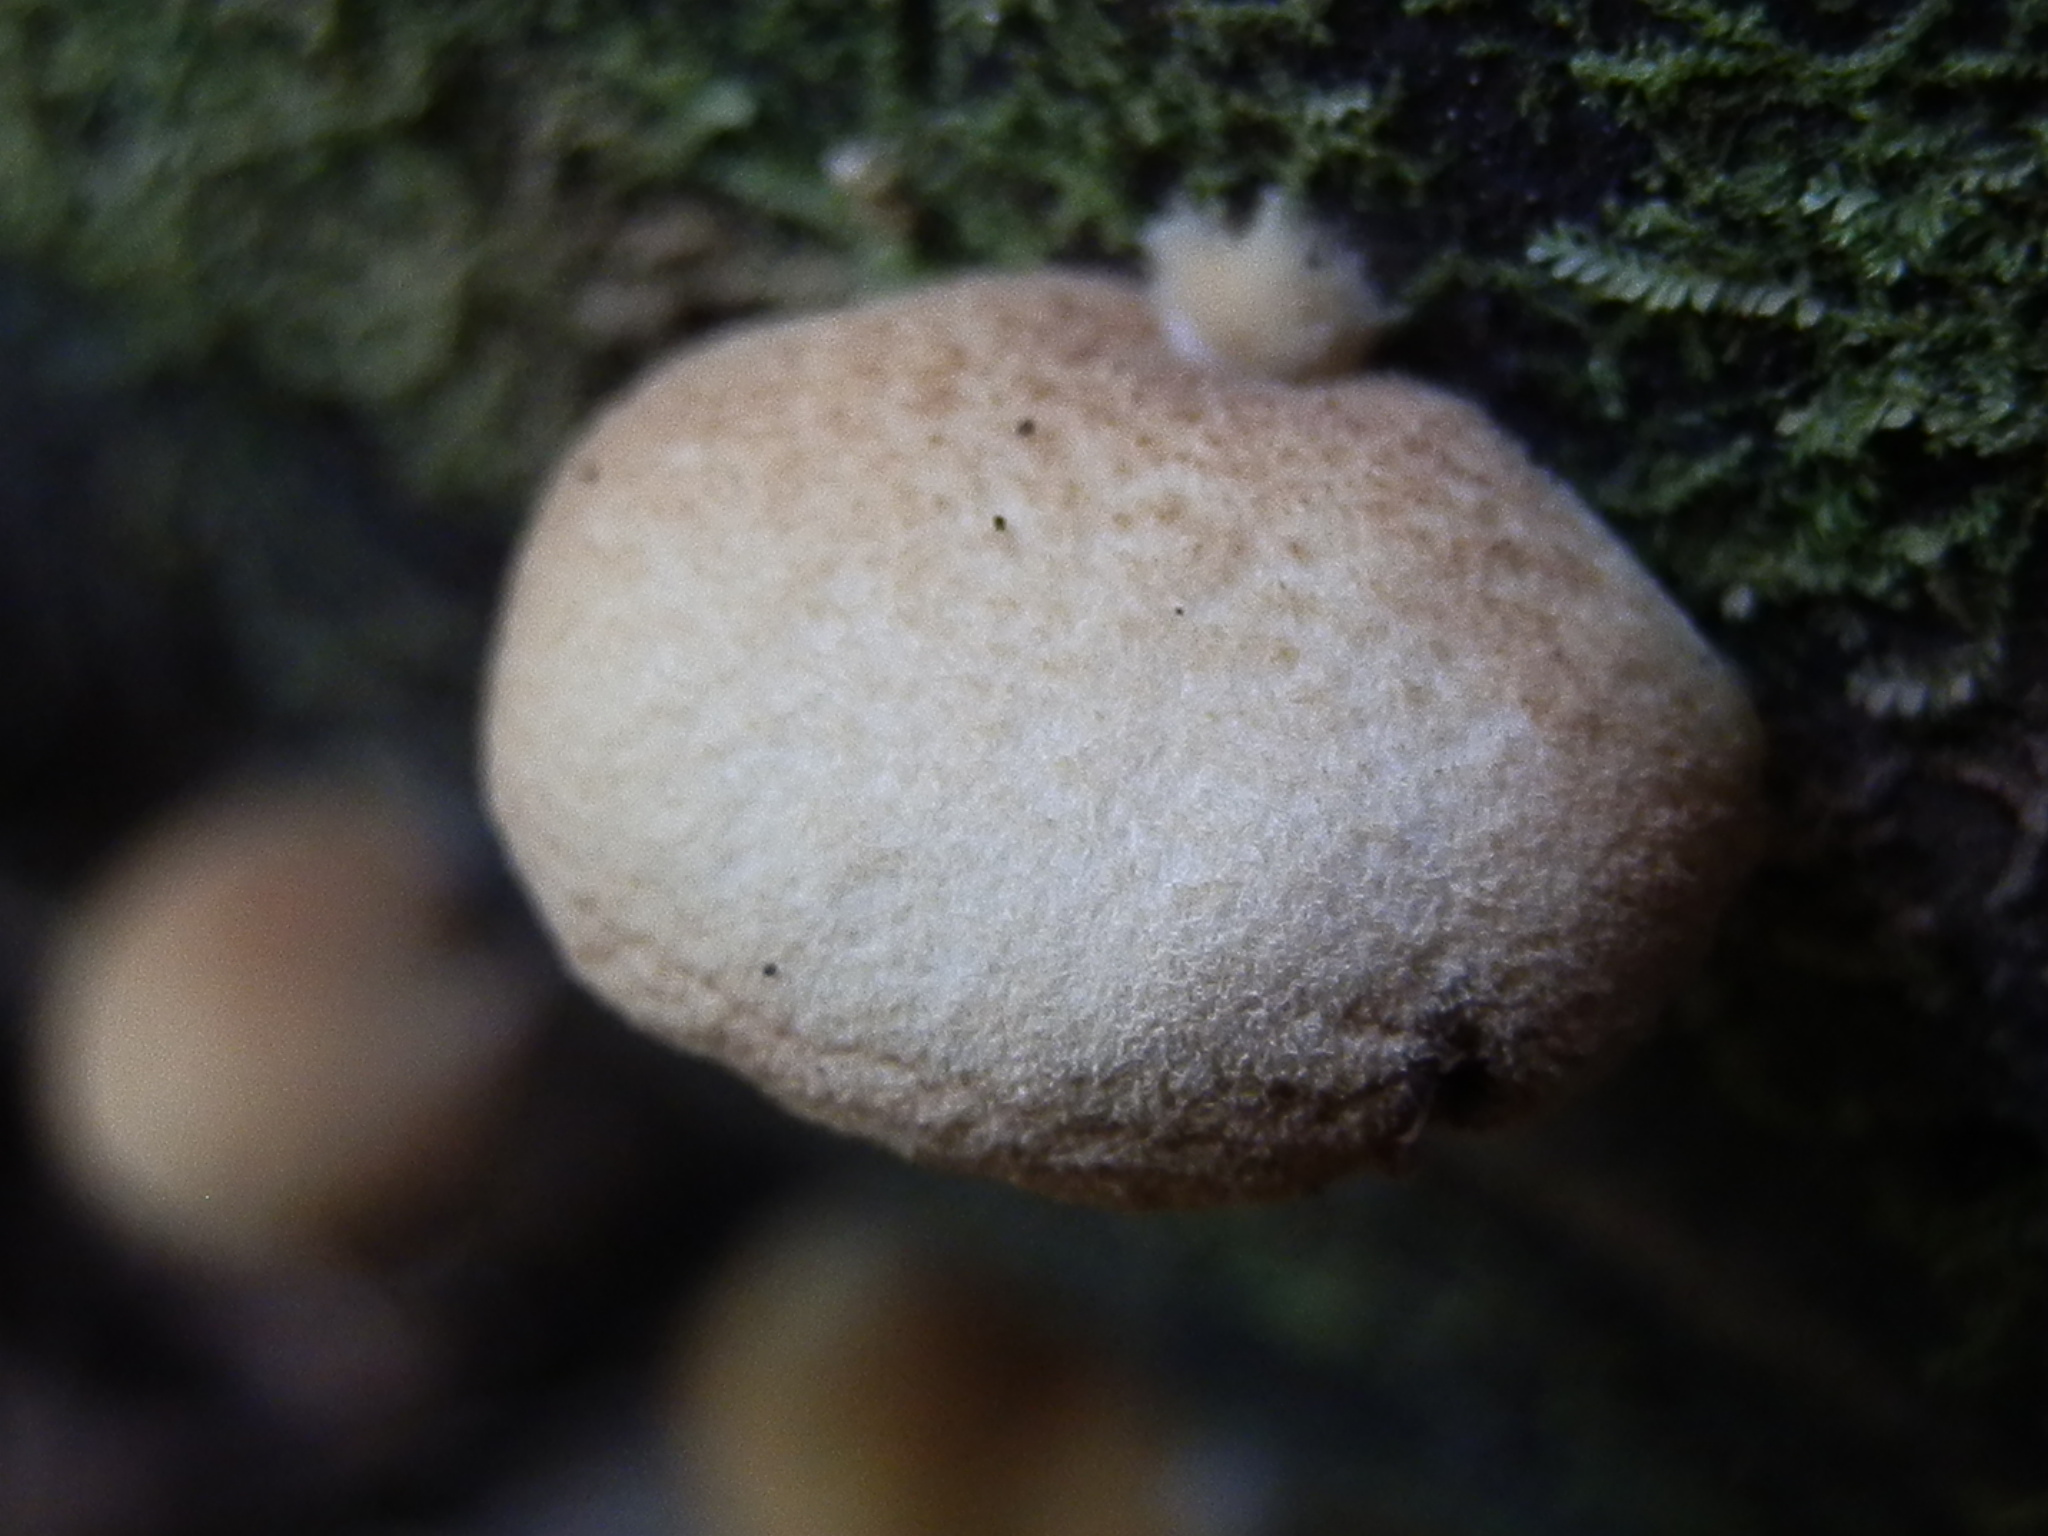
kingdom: Fungi
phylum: Basidiomycota
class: Agaricomycetes
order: Agaricales
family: Crepidotaceae
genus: Crepidotus
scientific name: Crepidotus crocophyllus
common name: Saffron oysterling
